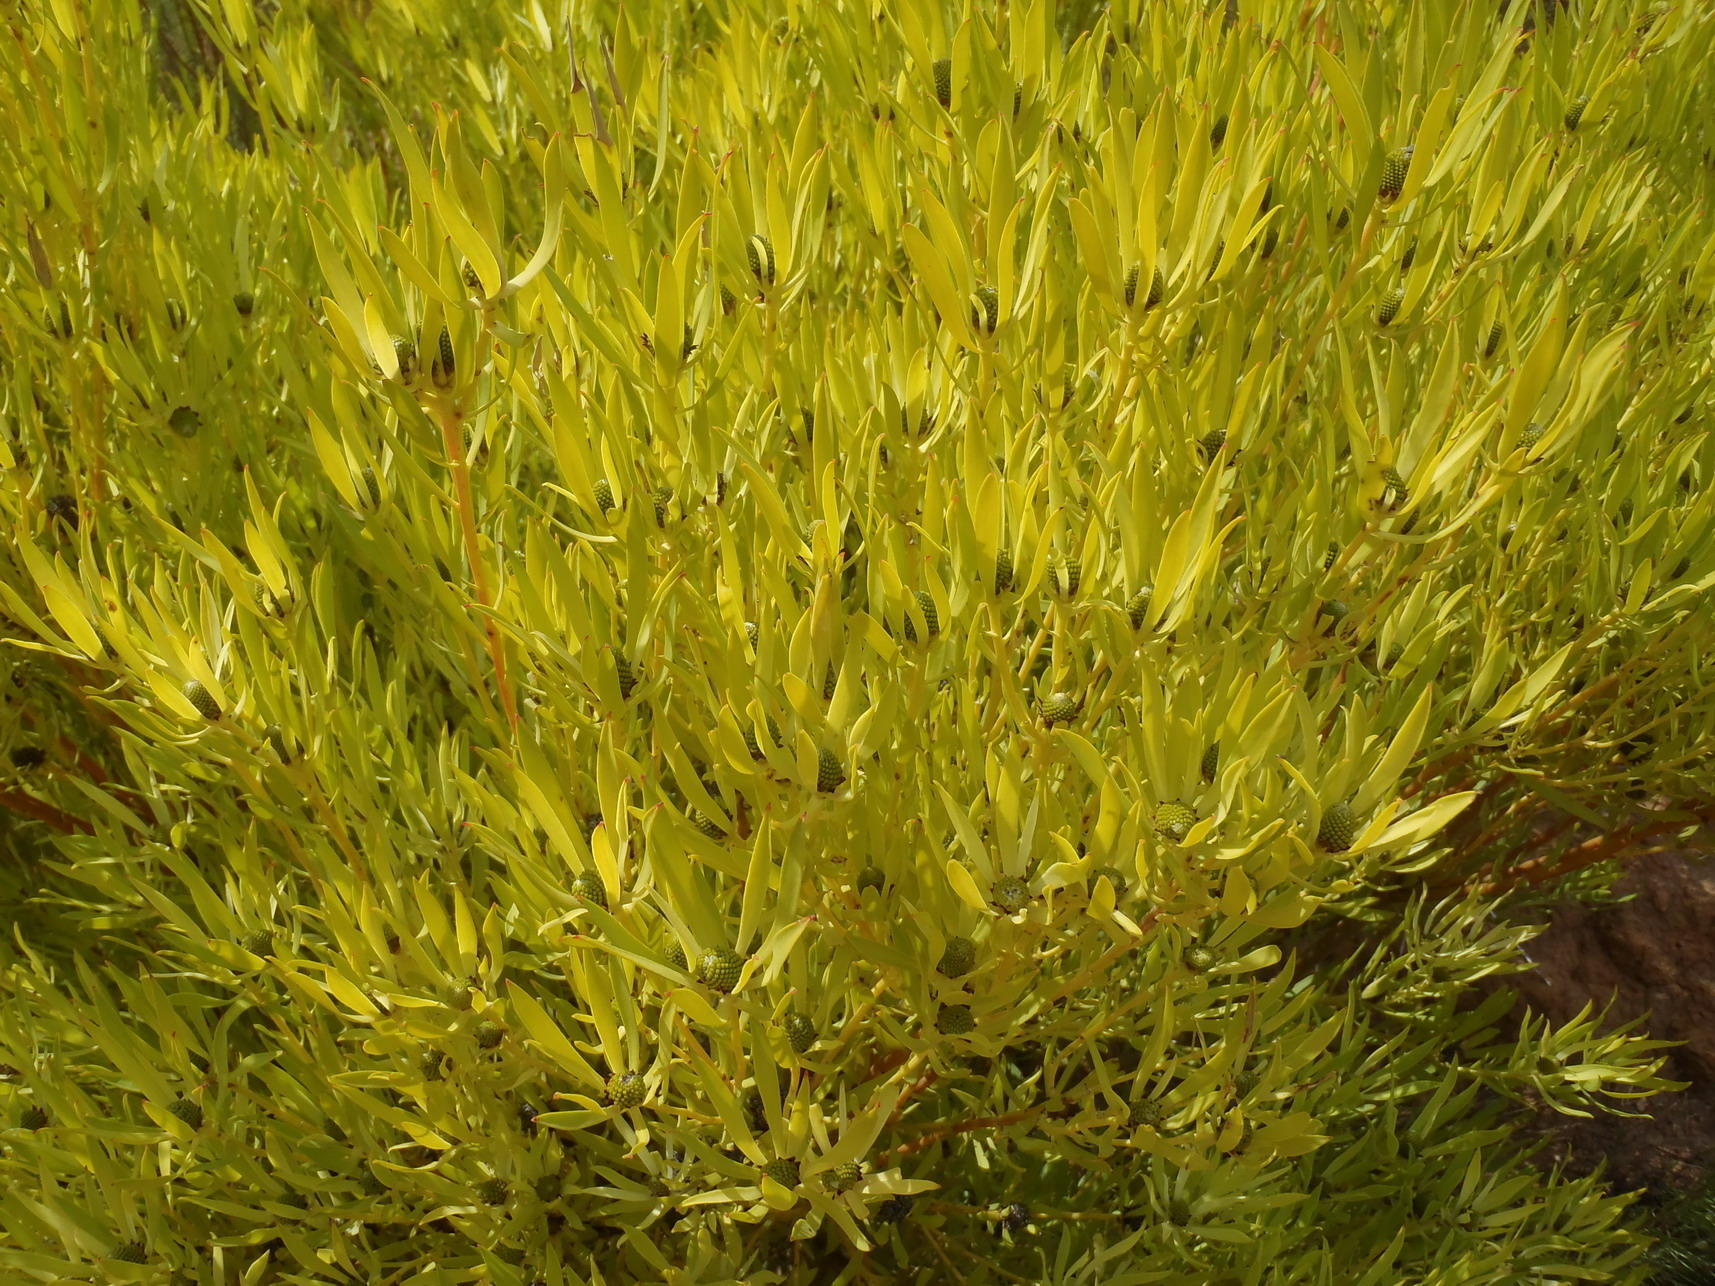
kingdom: Plantae
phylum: Tracheophyta
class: Magnoliopsida
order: Proteales
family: Proteaceae
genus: Leucadendron
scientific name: Leucadendron salignum
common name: Common sunshine conebush
